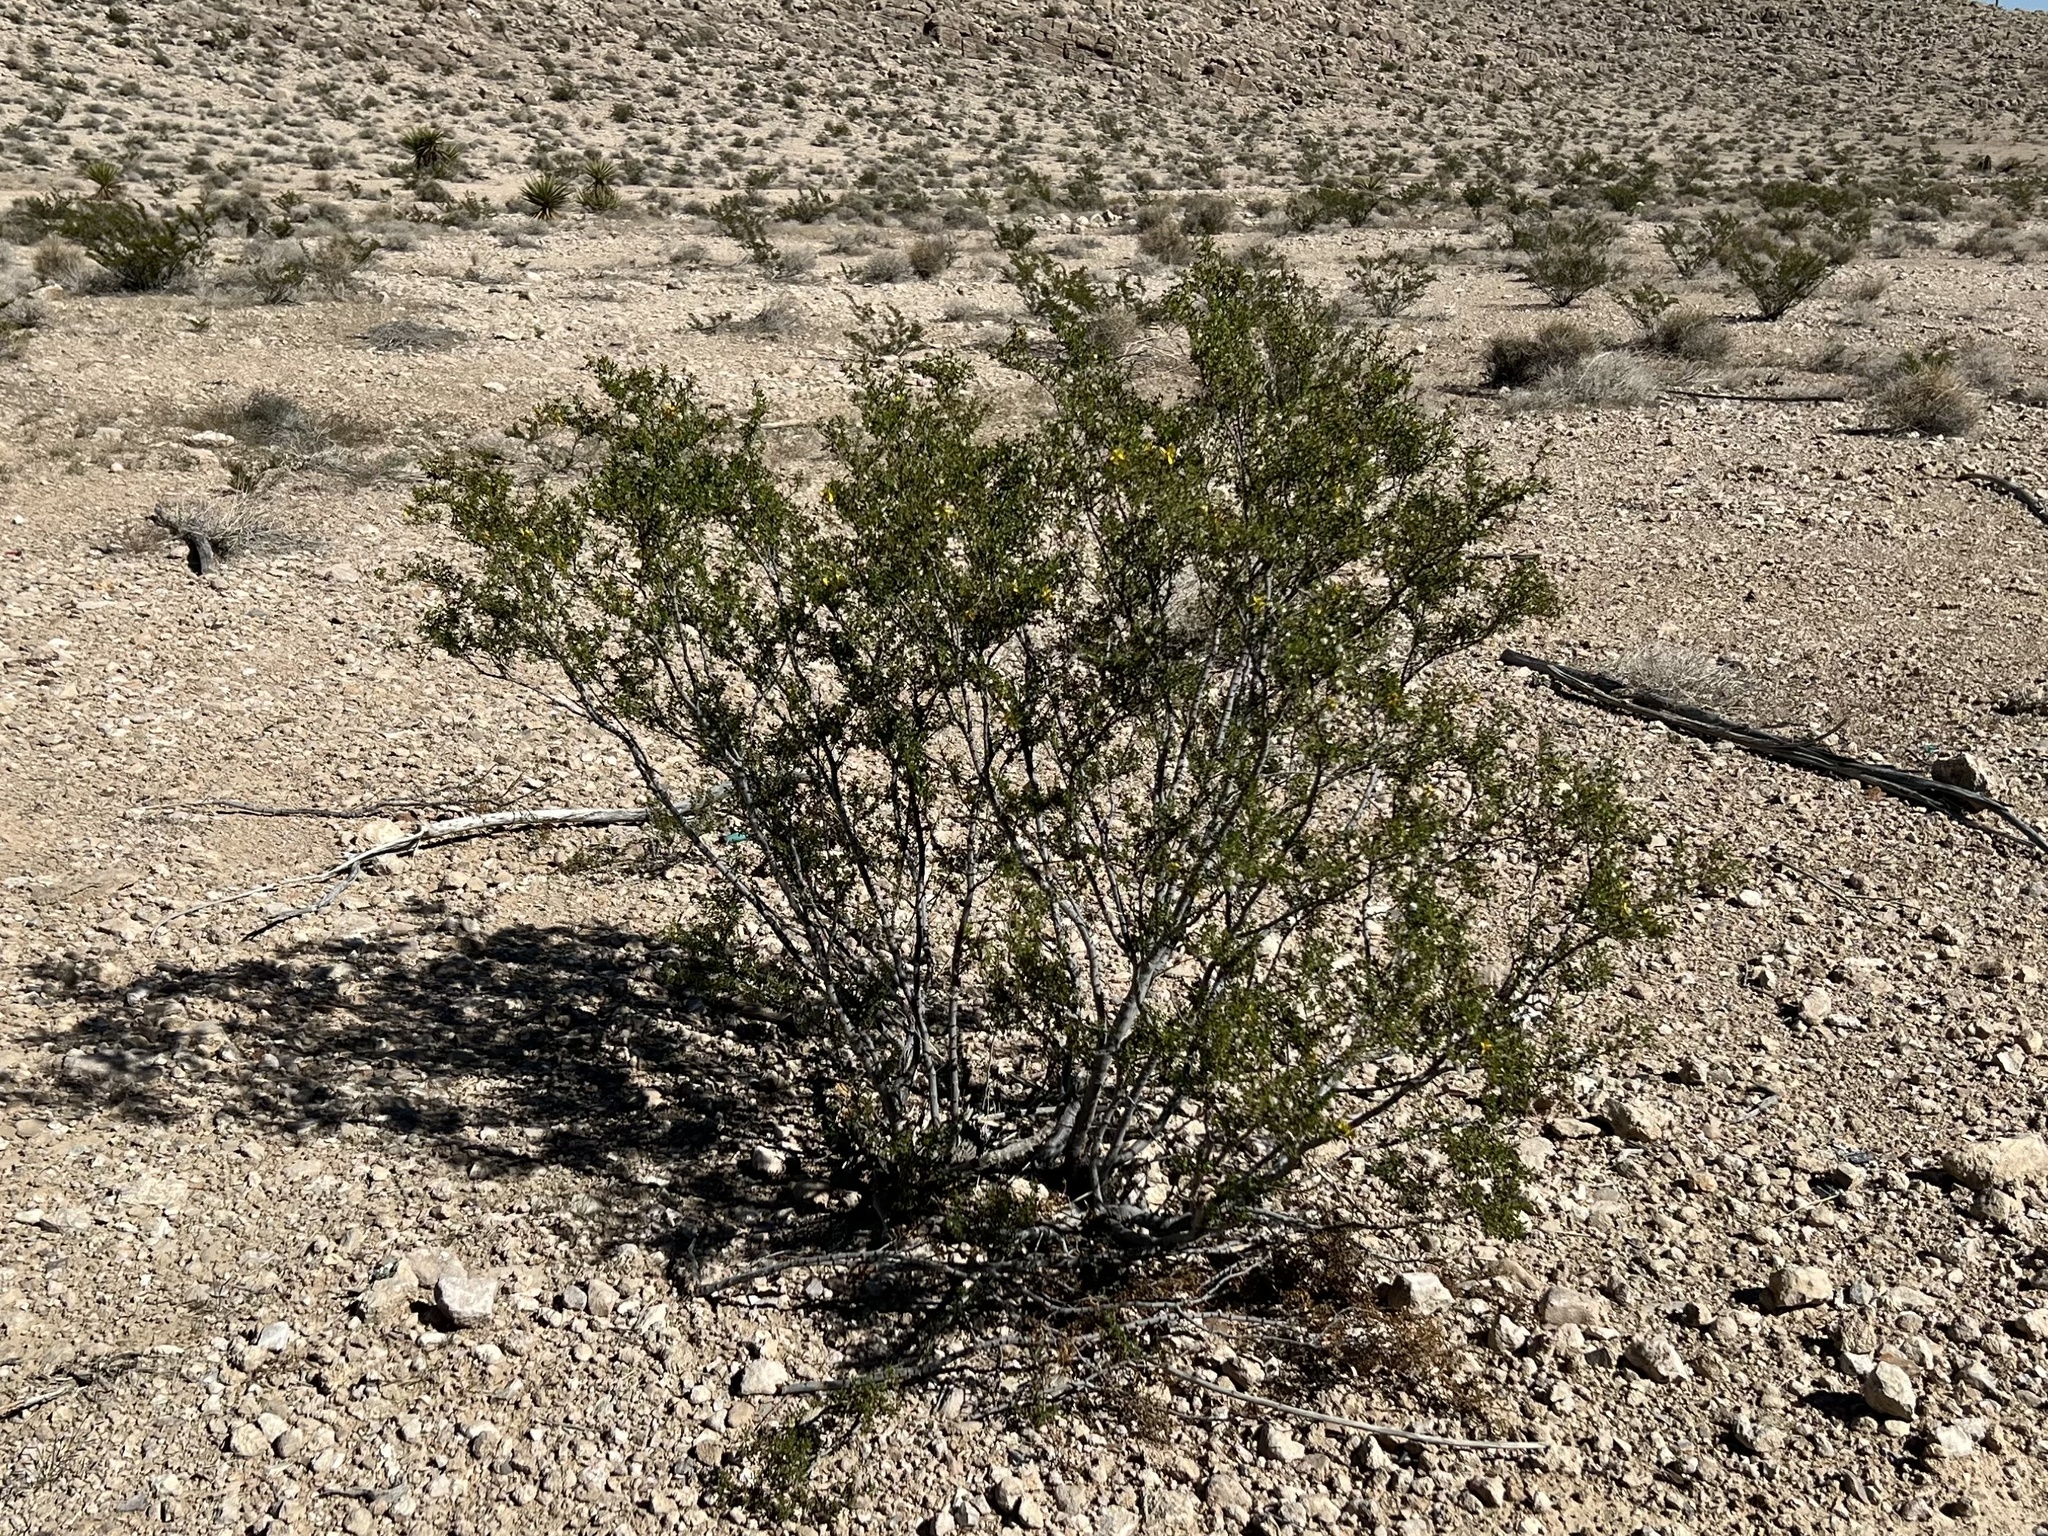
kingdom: Plantae
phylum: Tracheophyta
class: Magnoliopsida
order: Zygophyllales
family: Zygophyllaceae
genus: Larrea
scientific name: Larrea tridentata
